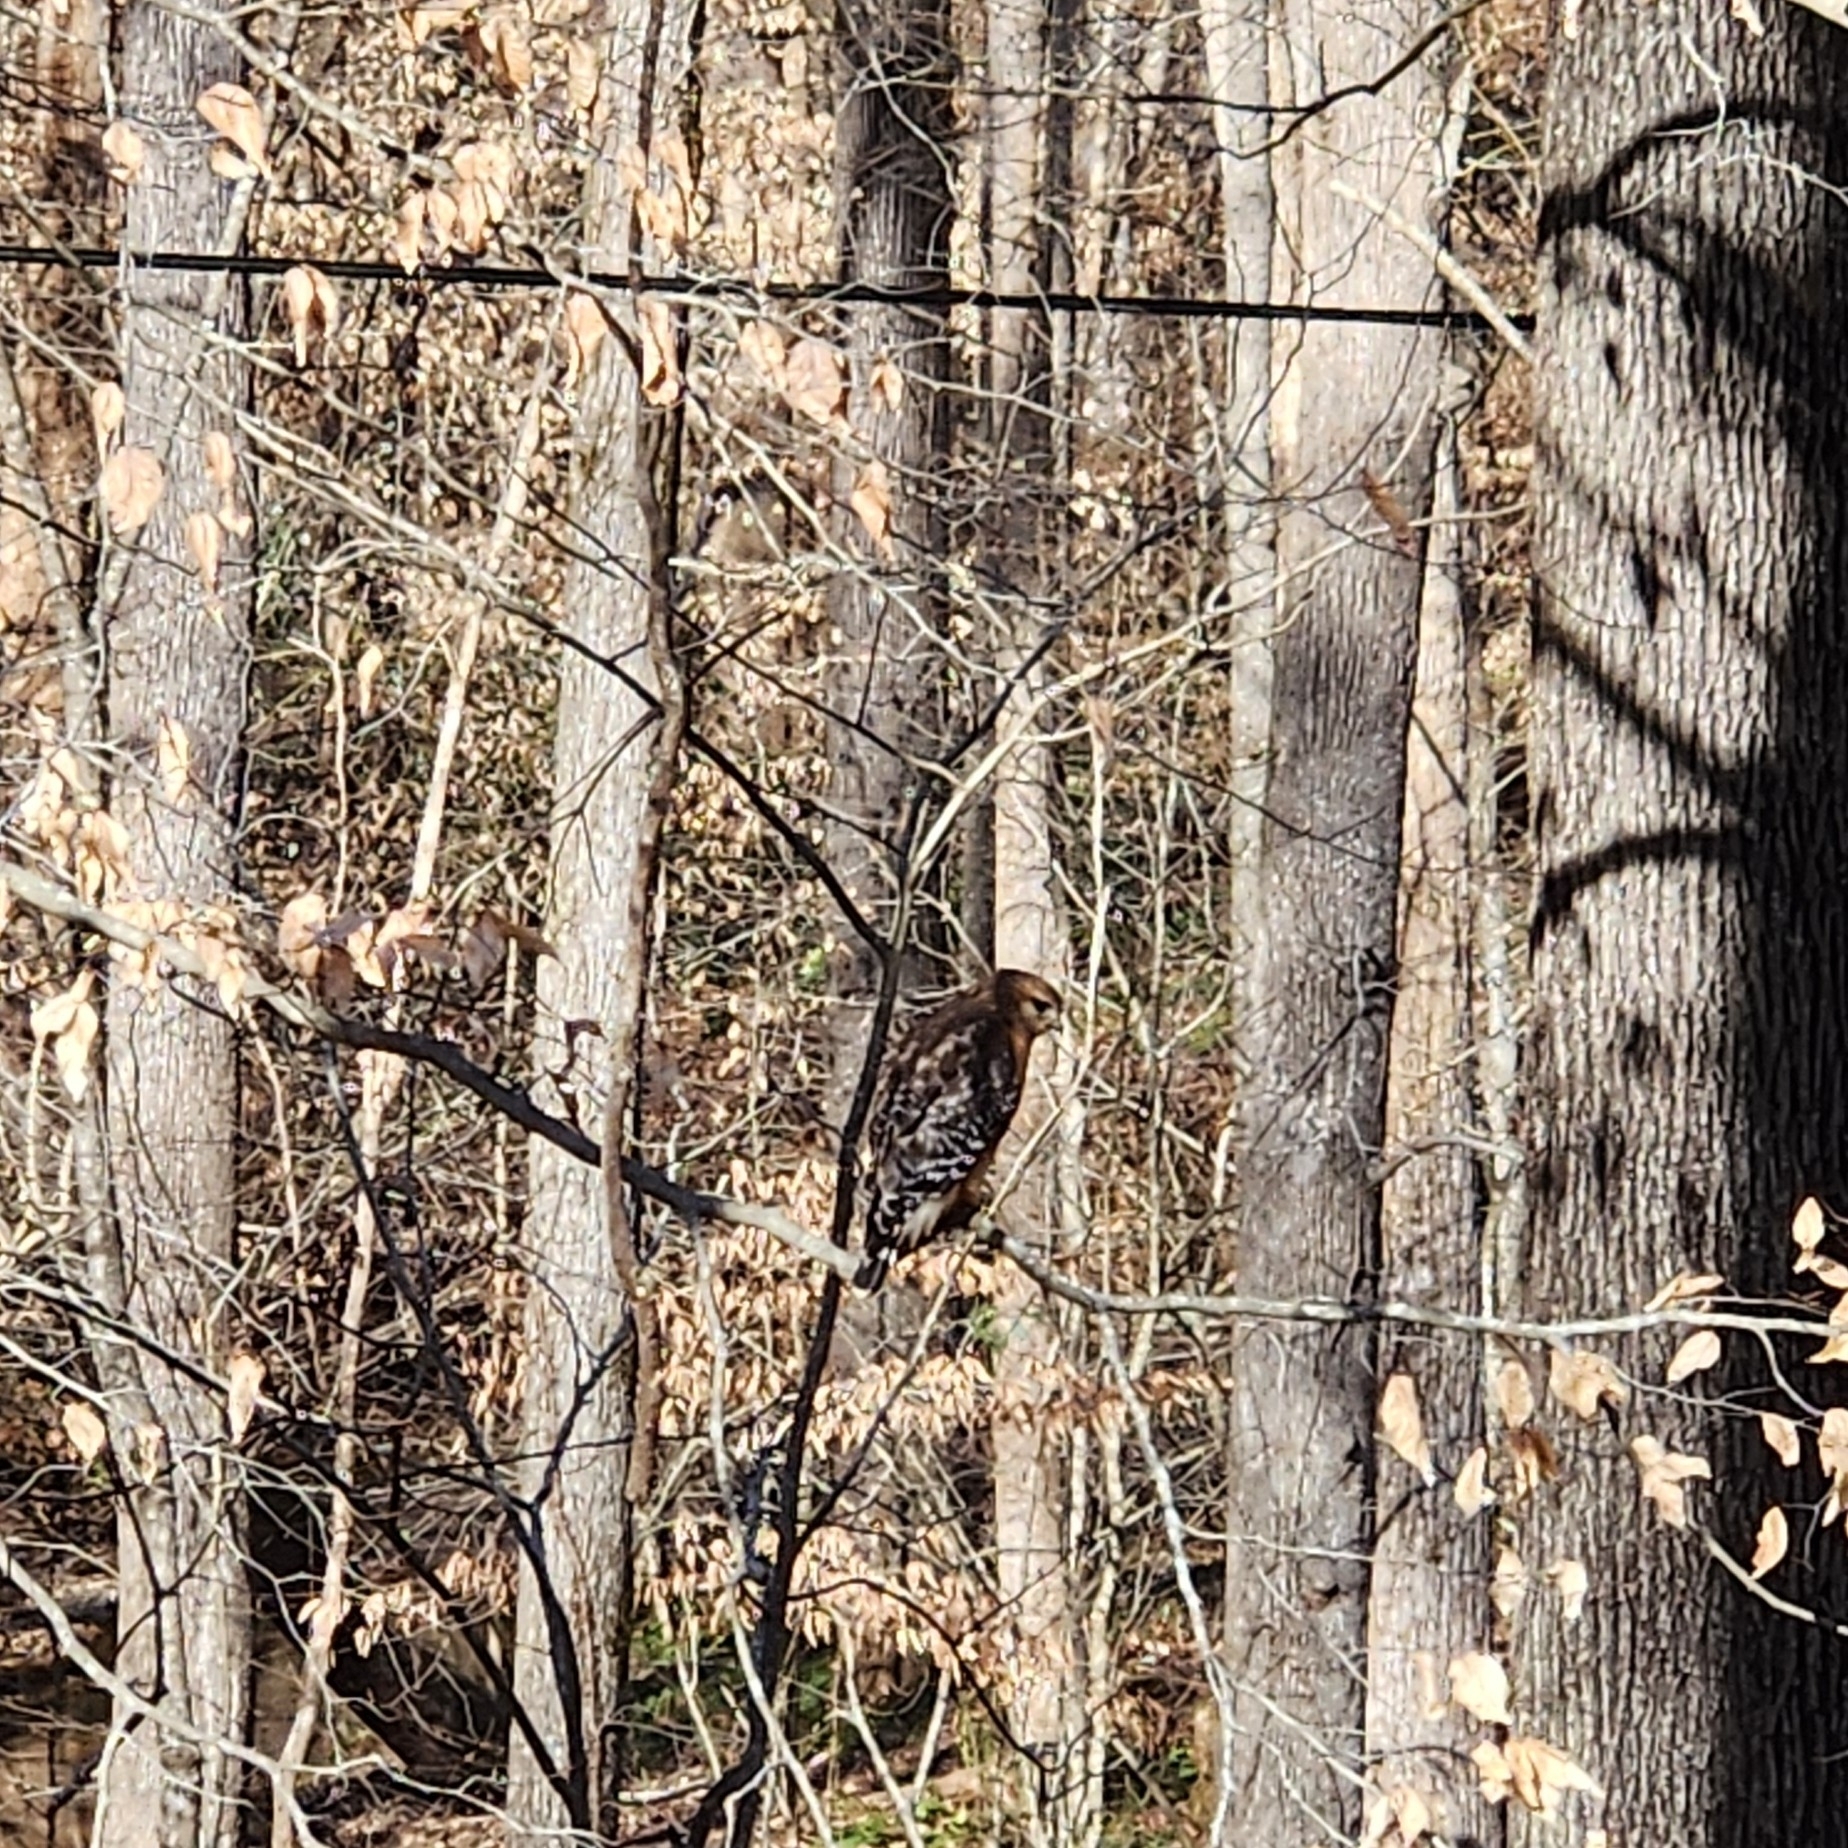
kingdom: Animalia
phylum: Chordata
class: Aves
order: Accipitriformes
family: Accipitridae
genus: Buteo
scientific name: Buteo lineatus
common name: Red-shouldered hawk
